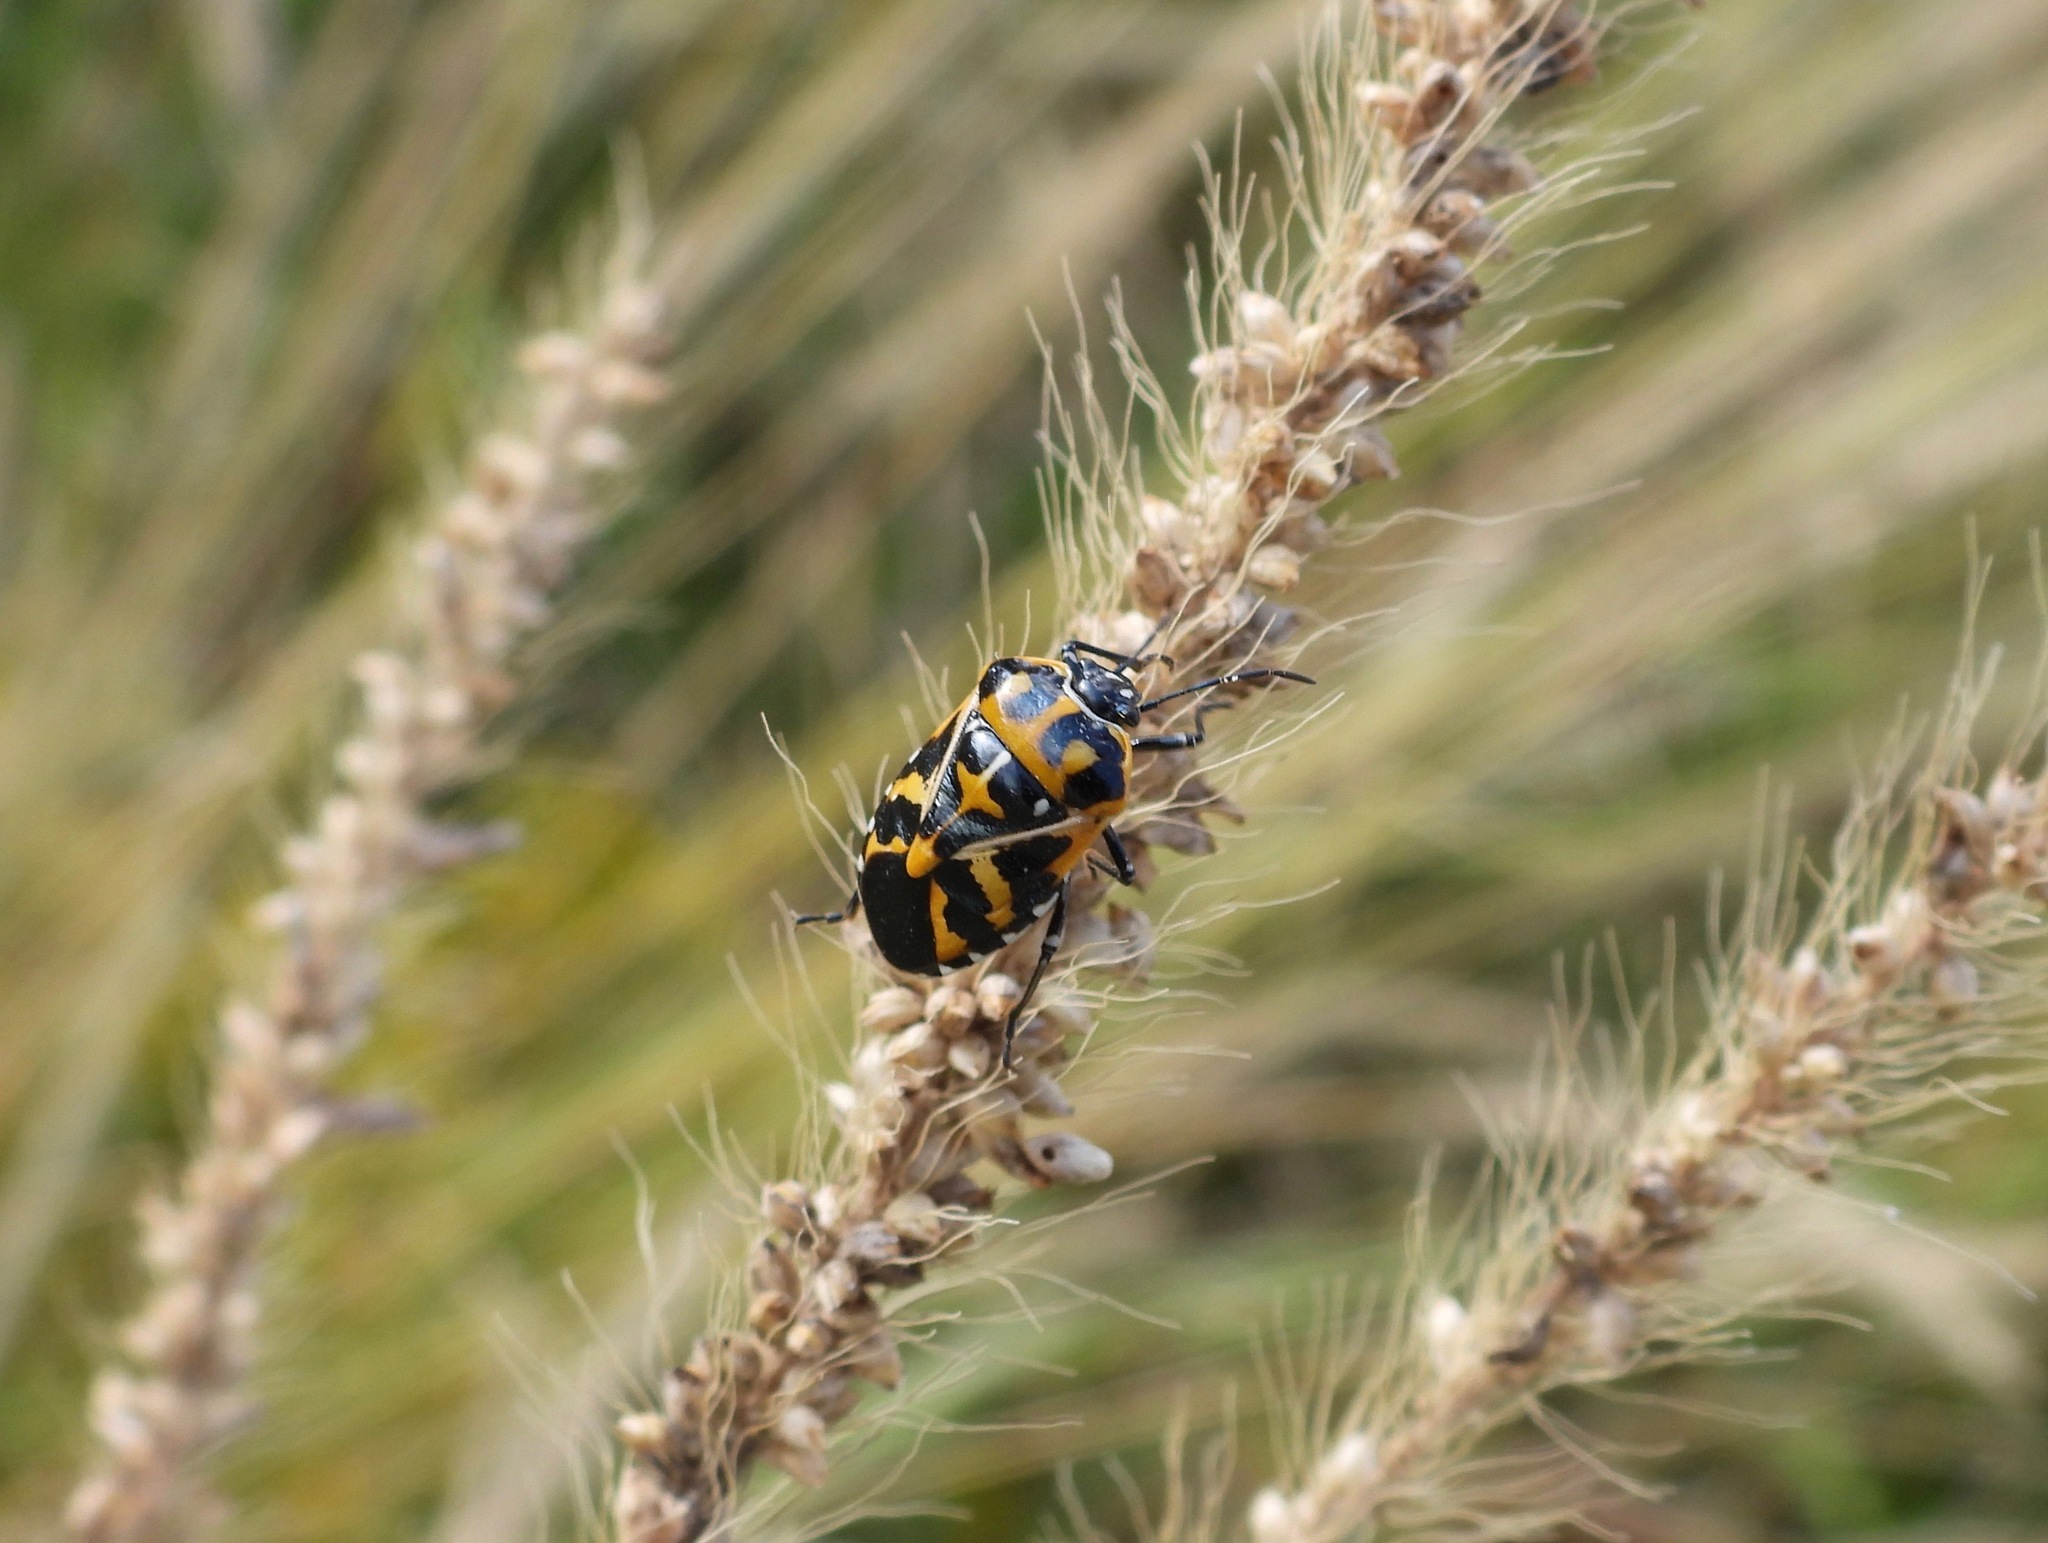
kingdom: Animalia
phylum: Arthropoda
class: Insecta
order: Hemiptera
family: Pentatomidae
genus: Murgantia
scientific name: Murgantia histrionica
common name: Harlequin bug
